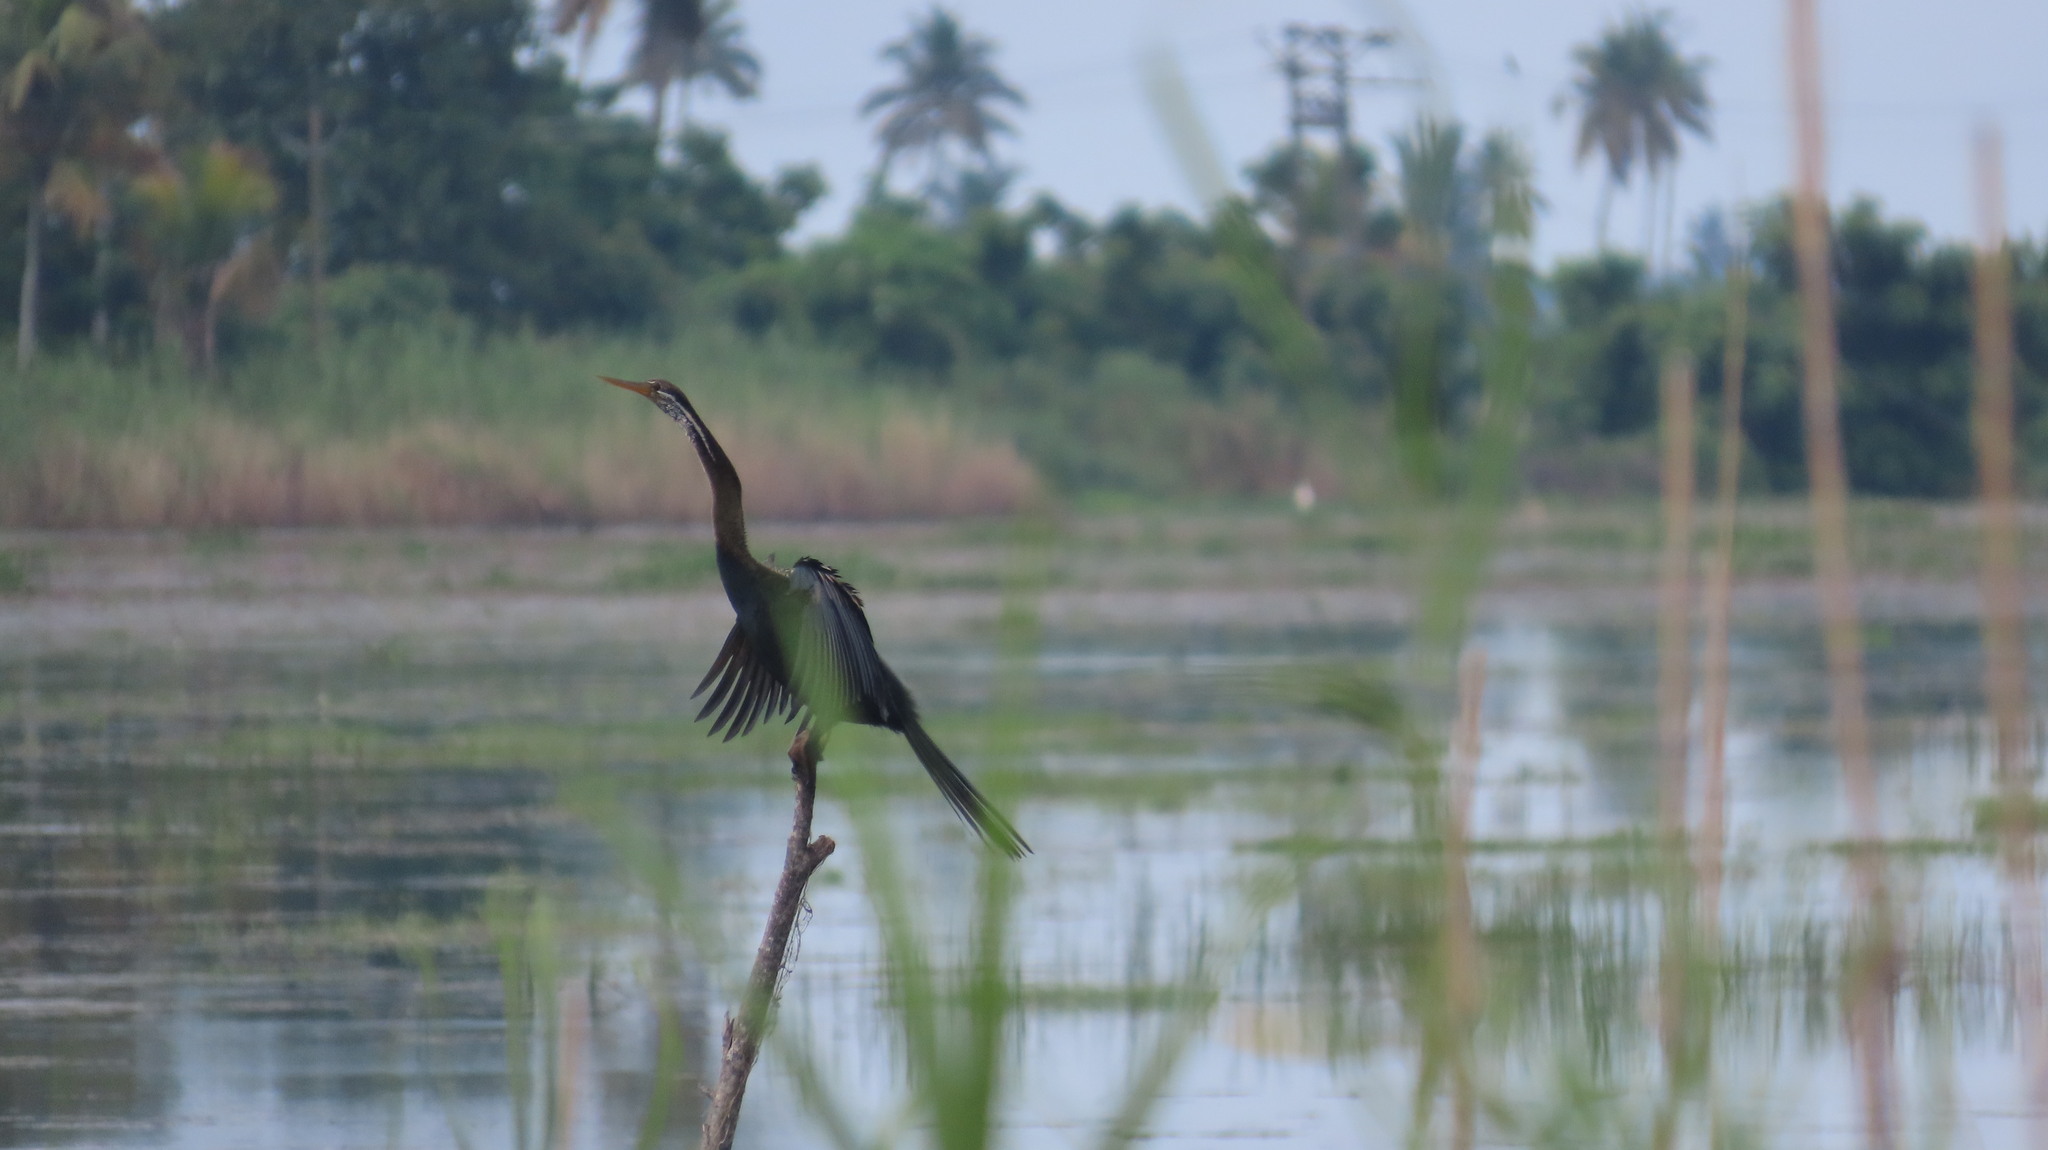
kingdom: Animalia
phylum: Chordata
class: Aves
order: Suliformes
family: Anhingidae
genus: Anhinga
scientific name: Anhinga melanogaster
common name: Oriental darter
